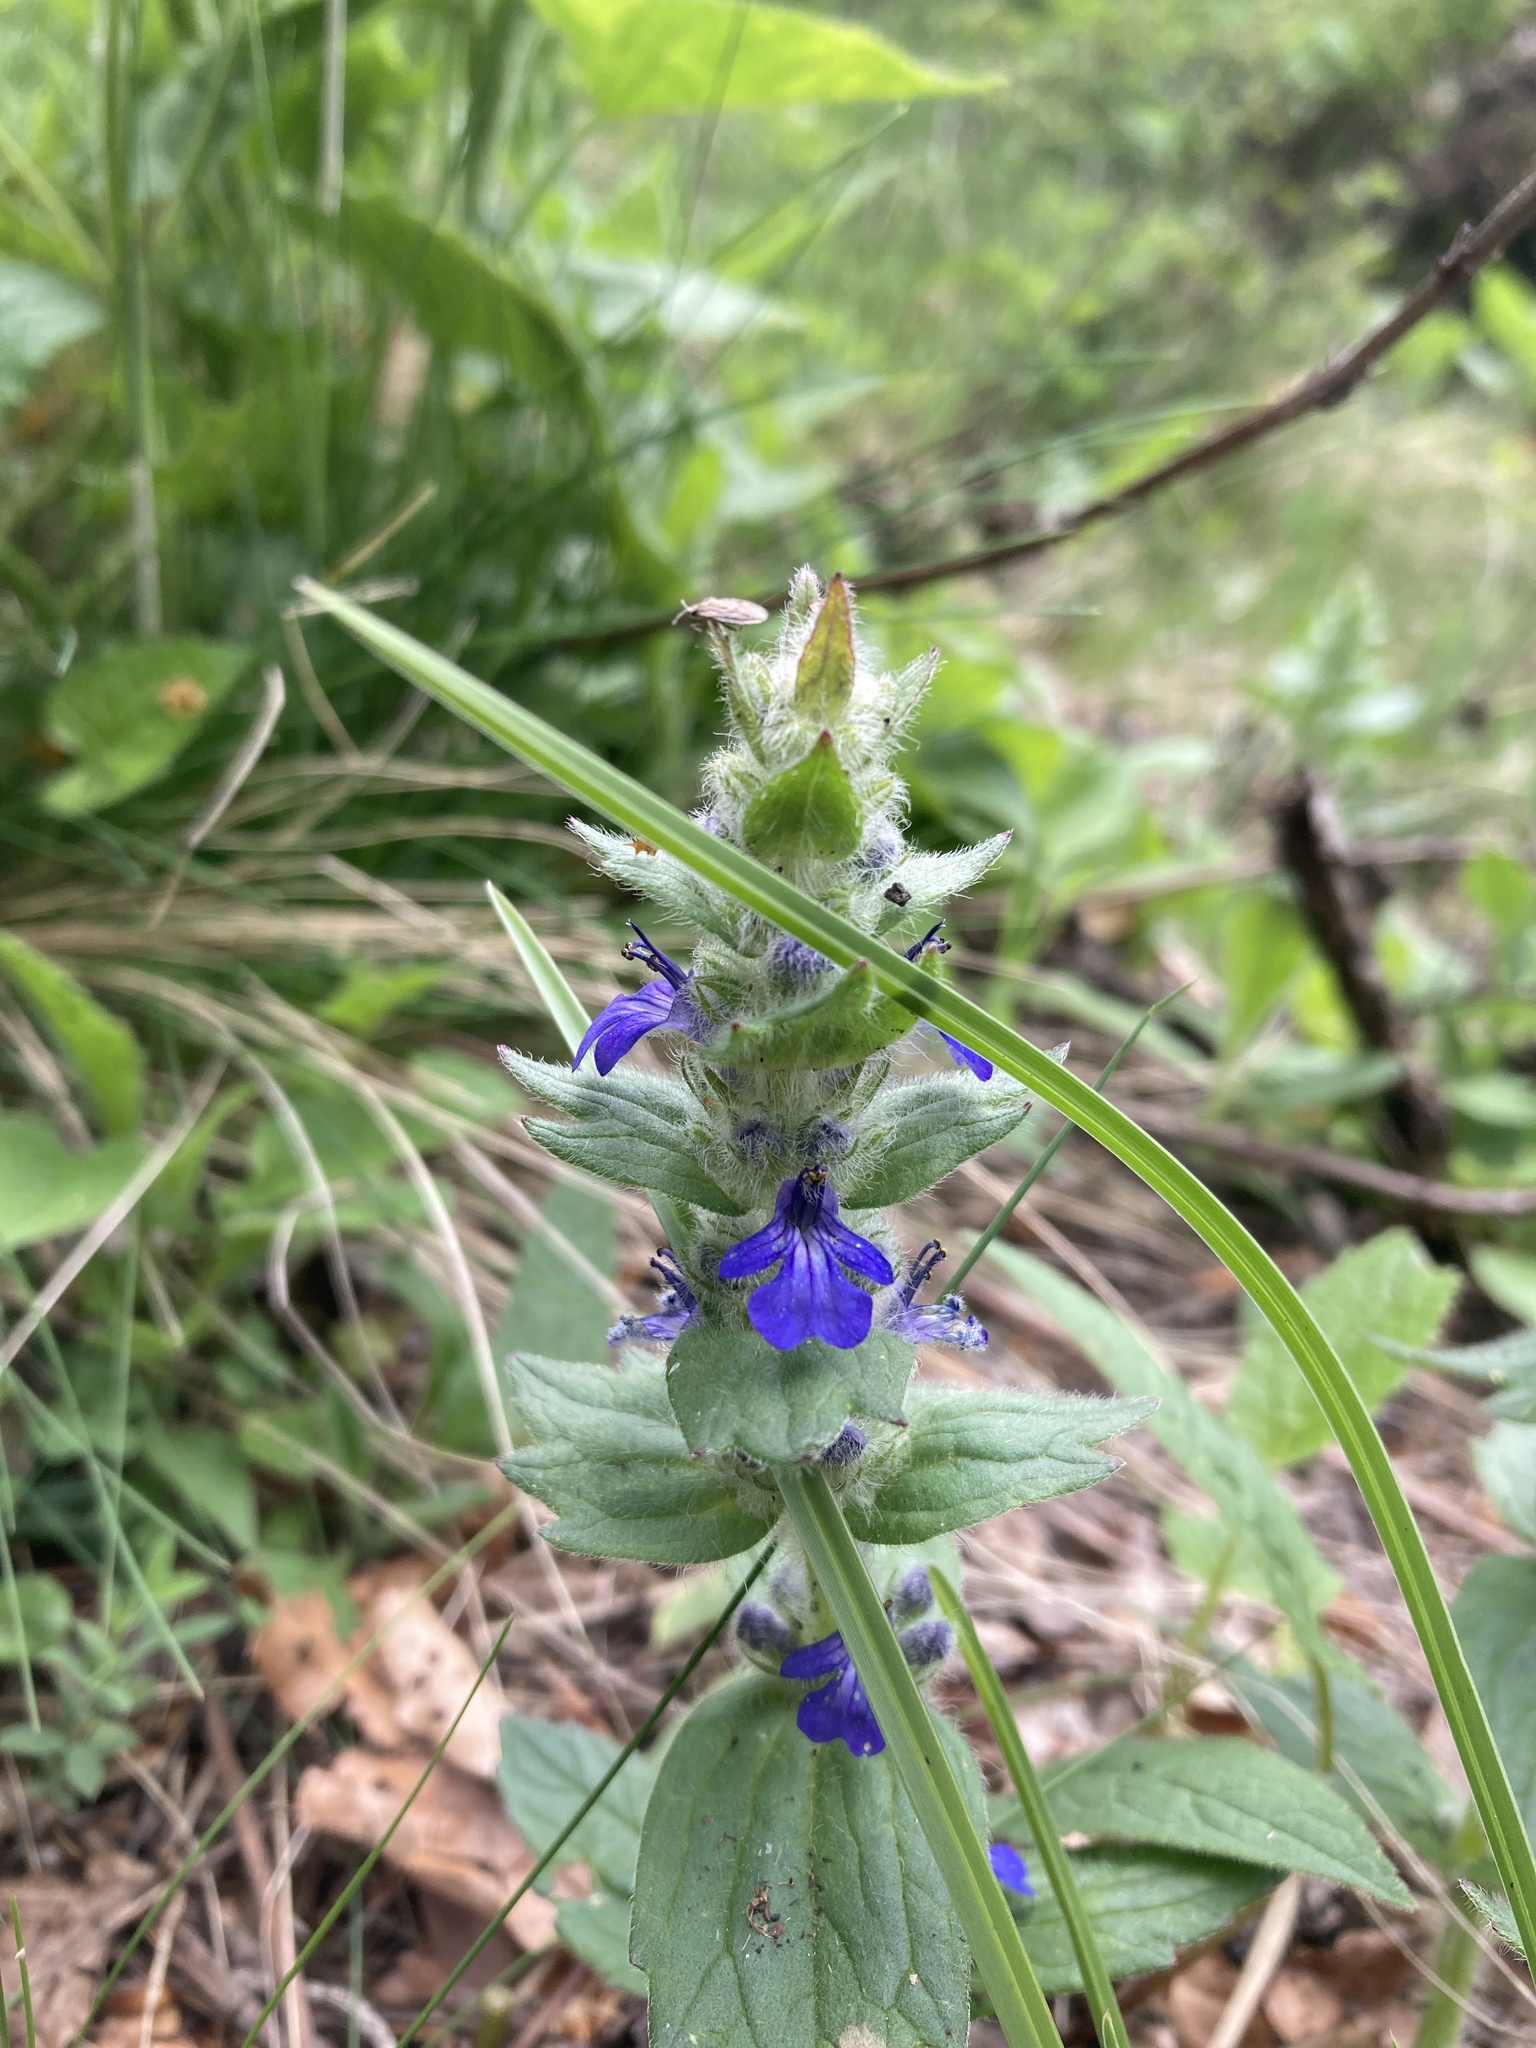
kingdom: Plantae
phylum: Tracheophyta
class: Magnoliopsida
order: Lamiales
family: Lamiaceae
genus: Ajuga
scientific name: Ajuga genevensis
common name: Blue bugle
